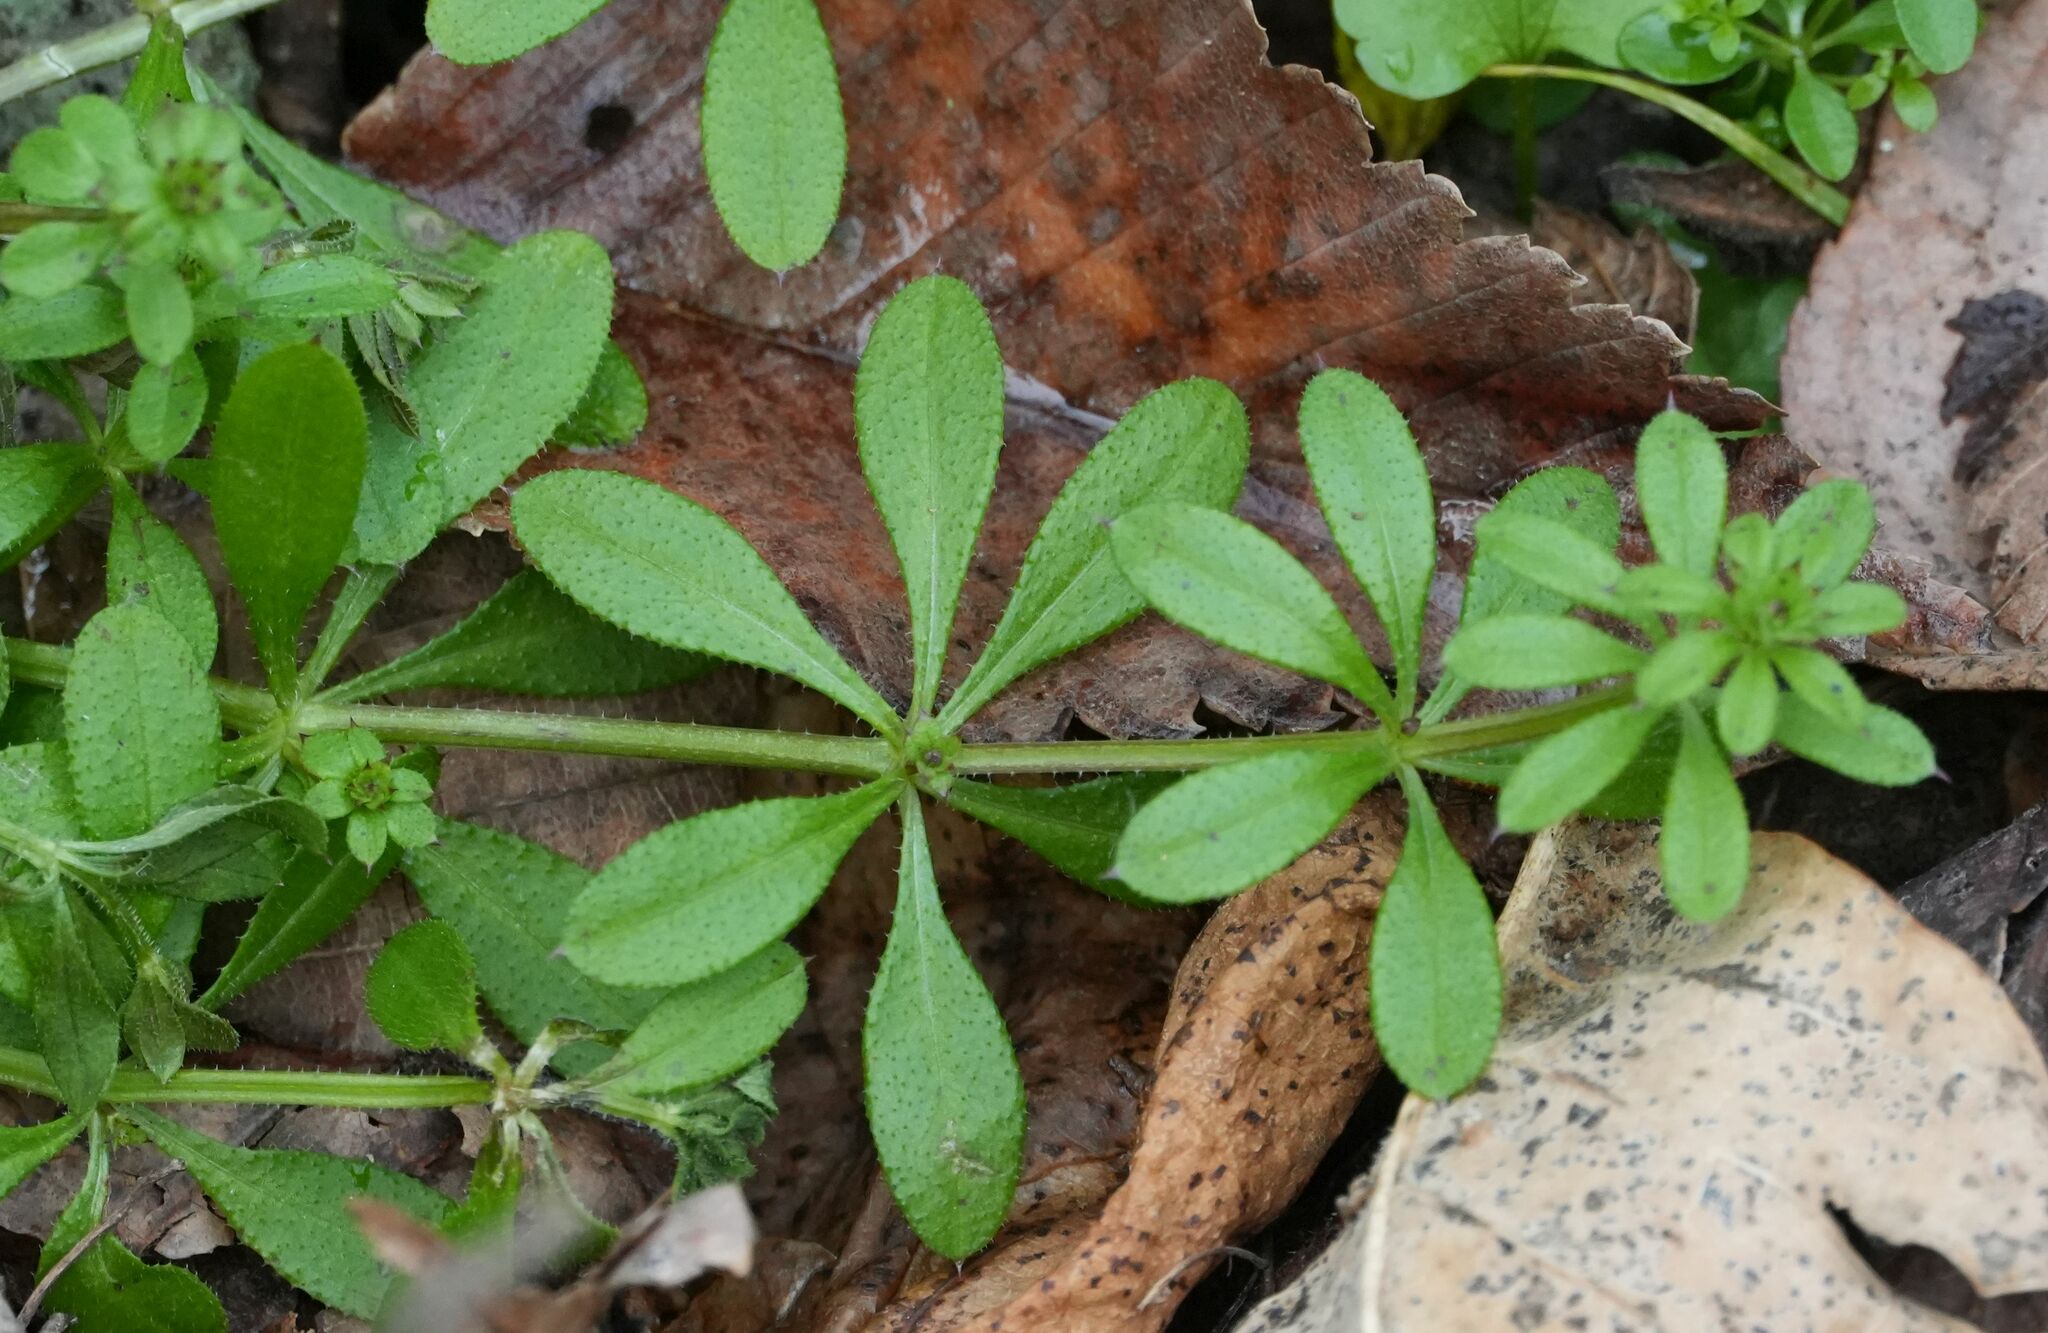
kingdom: Plantae
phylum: Tracheophyta
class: Magnoliopsida
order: Gentianales
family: Rubiaceae
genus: Galium
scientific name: Galium aparine
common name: Cleavers
